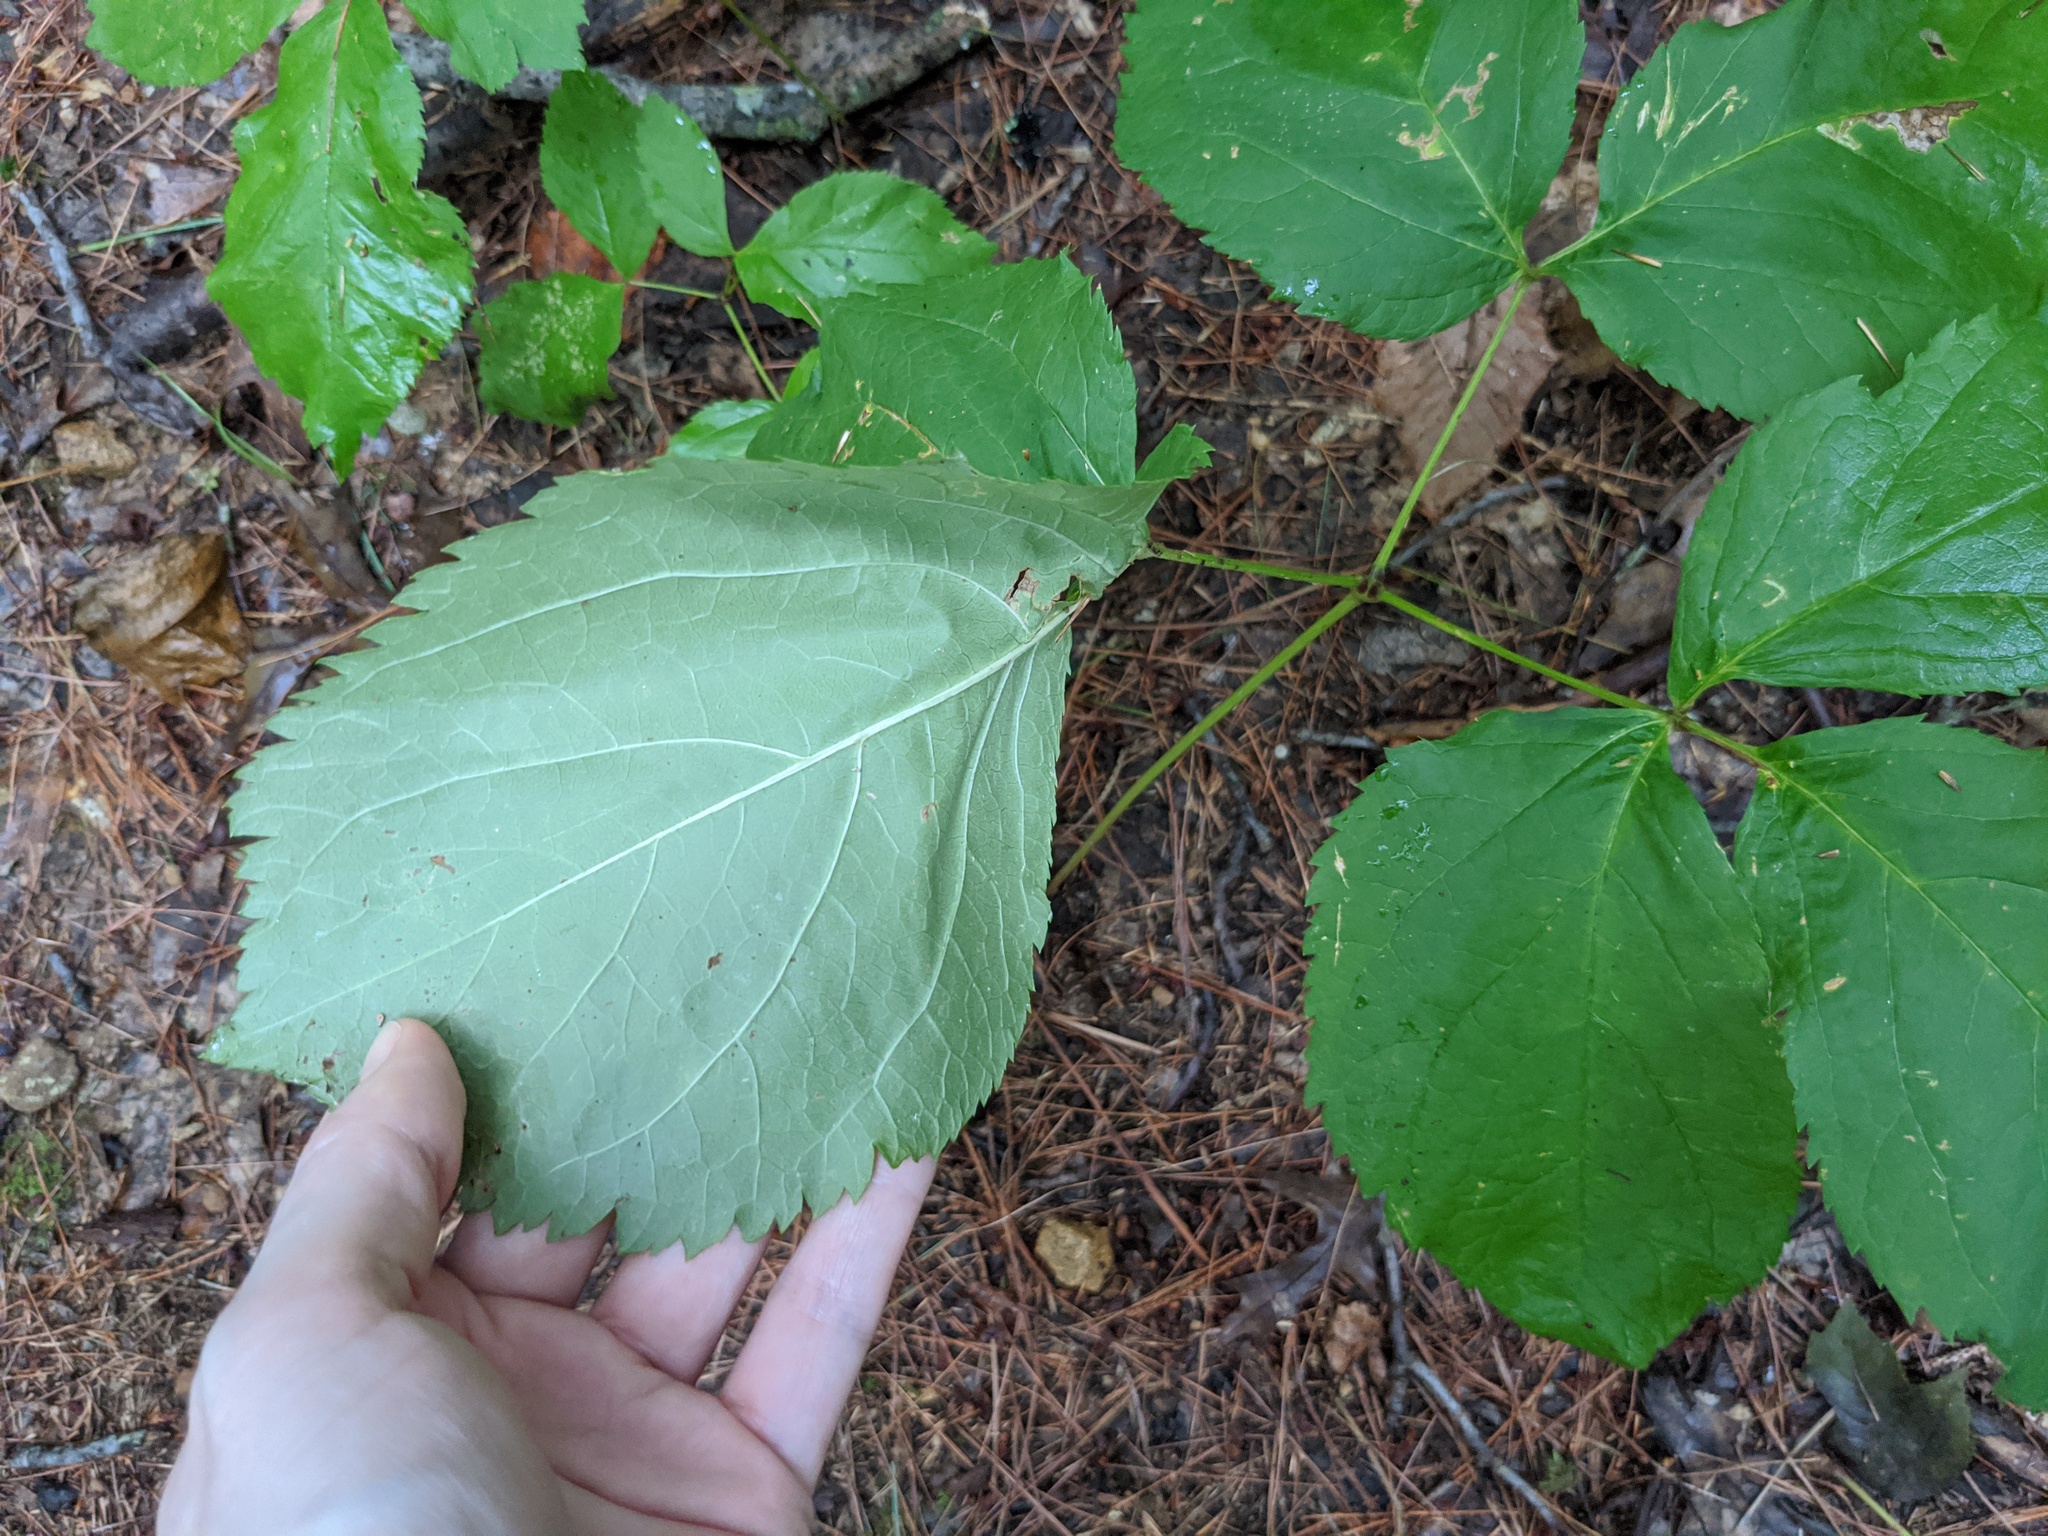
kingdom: Plantae
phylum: Tracheophyta
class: Magnoliopsida
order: Apiales
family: Araliaceae
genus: Aralia
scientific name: Aralia nudicaulis
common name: Wild sarsaparilla
